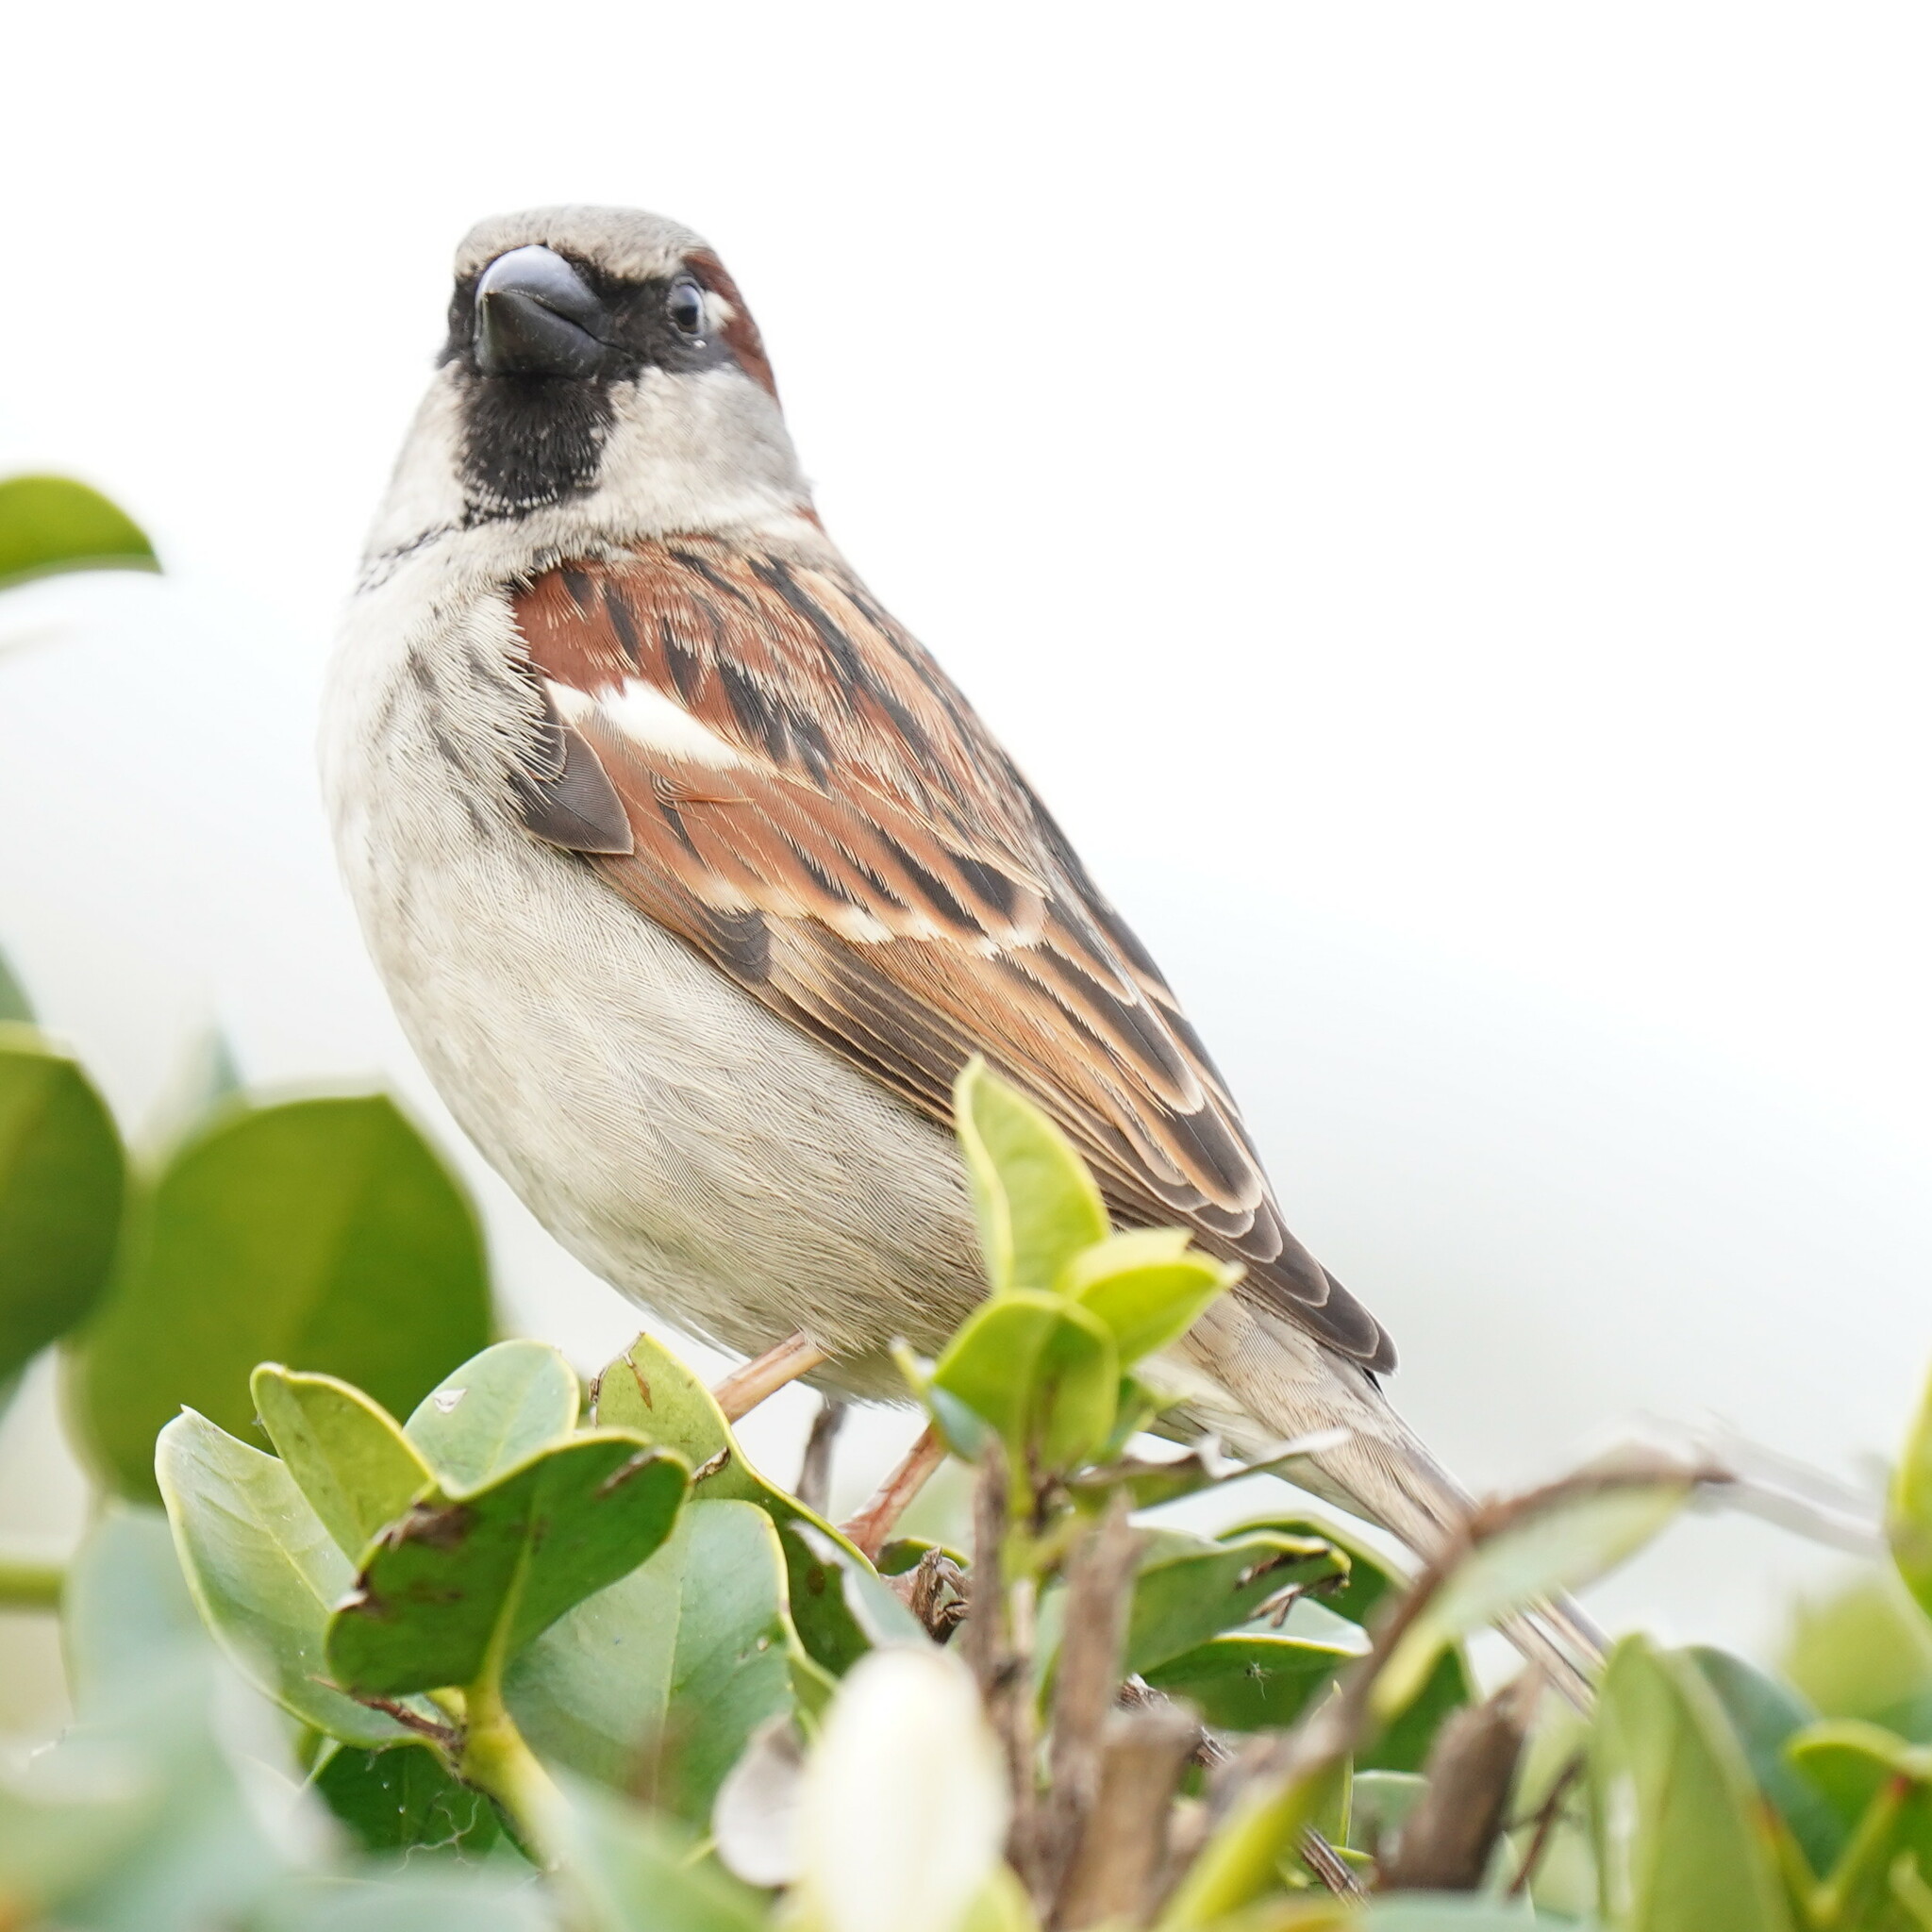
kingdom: Animalia
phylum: Chordata
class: Aves
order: Passeriformes
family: Passeridae
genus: Passer
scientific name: Passer domesticus
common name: House sparrow
